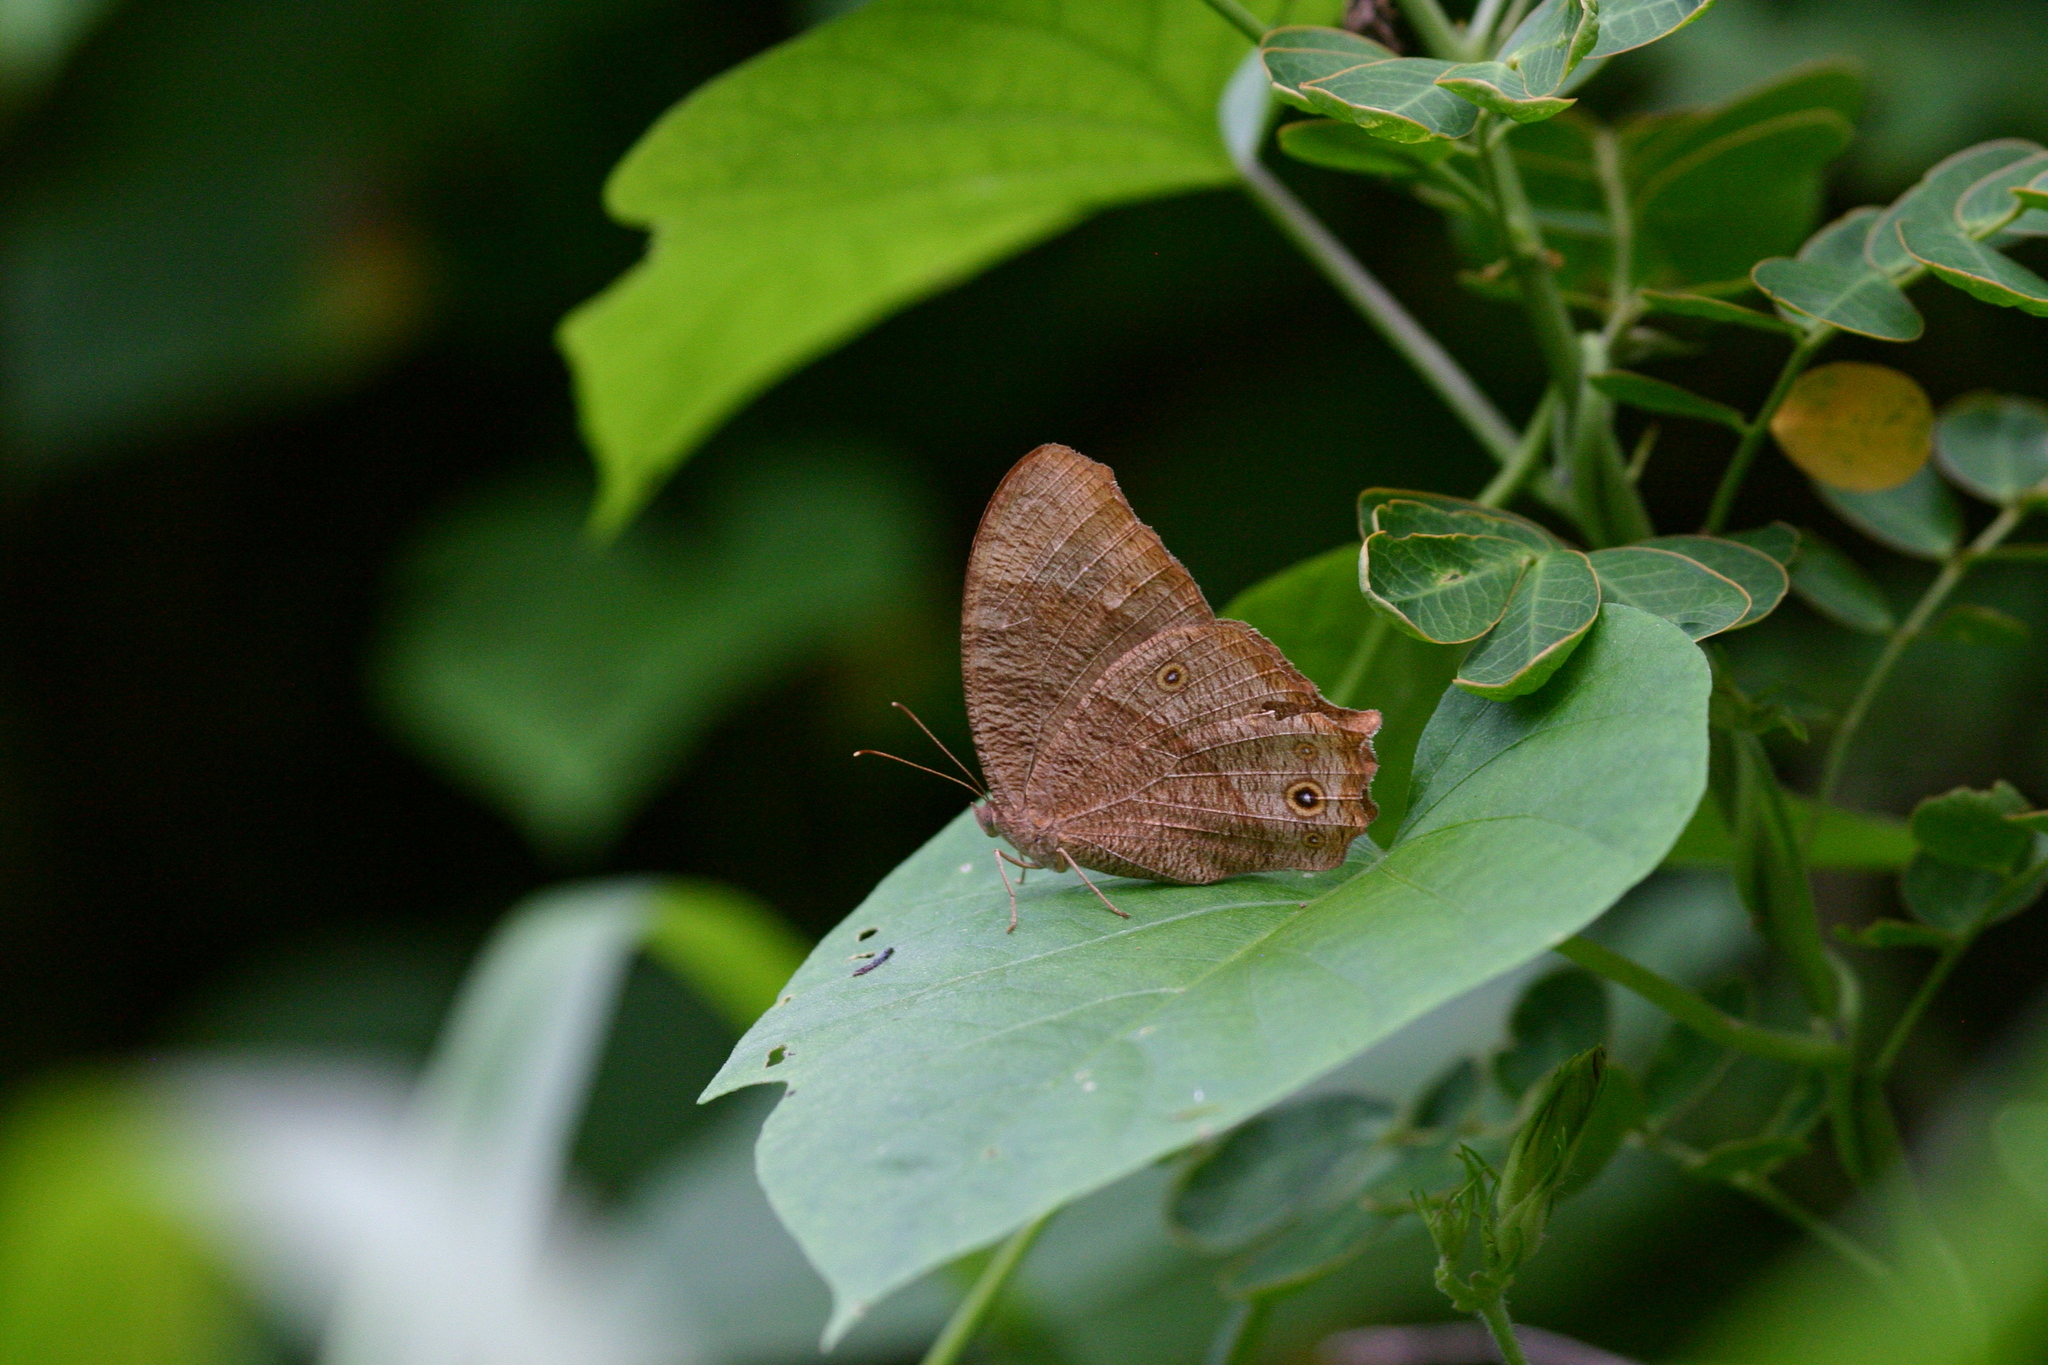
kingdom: Animalia
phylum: Arthropoda
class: Insecta
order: Lepidoptera
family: Nymphalidae
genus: Melanitis
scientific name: Melanitis leda
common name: Twilight brown
